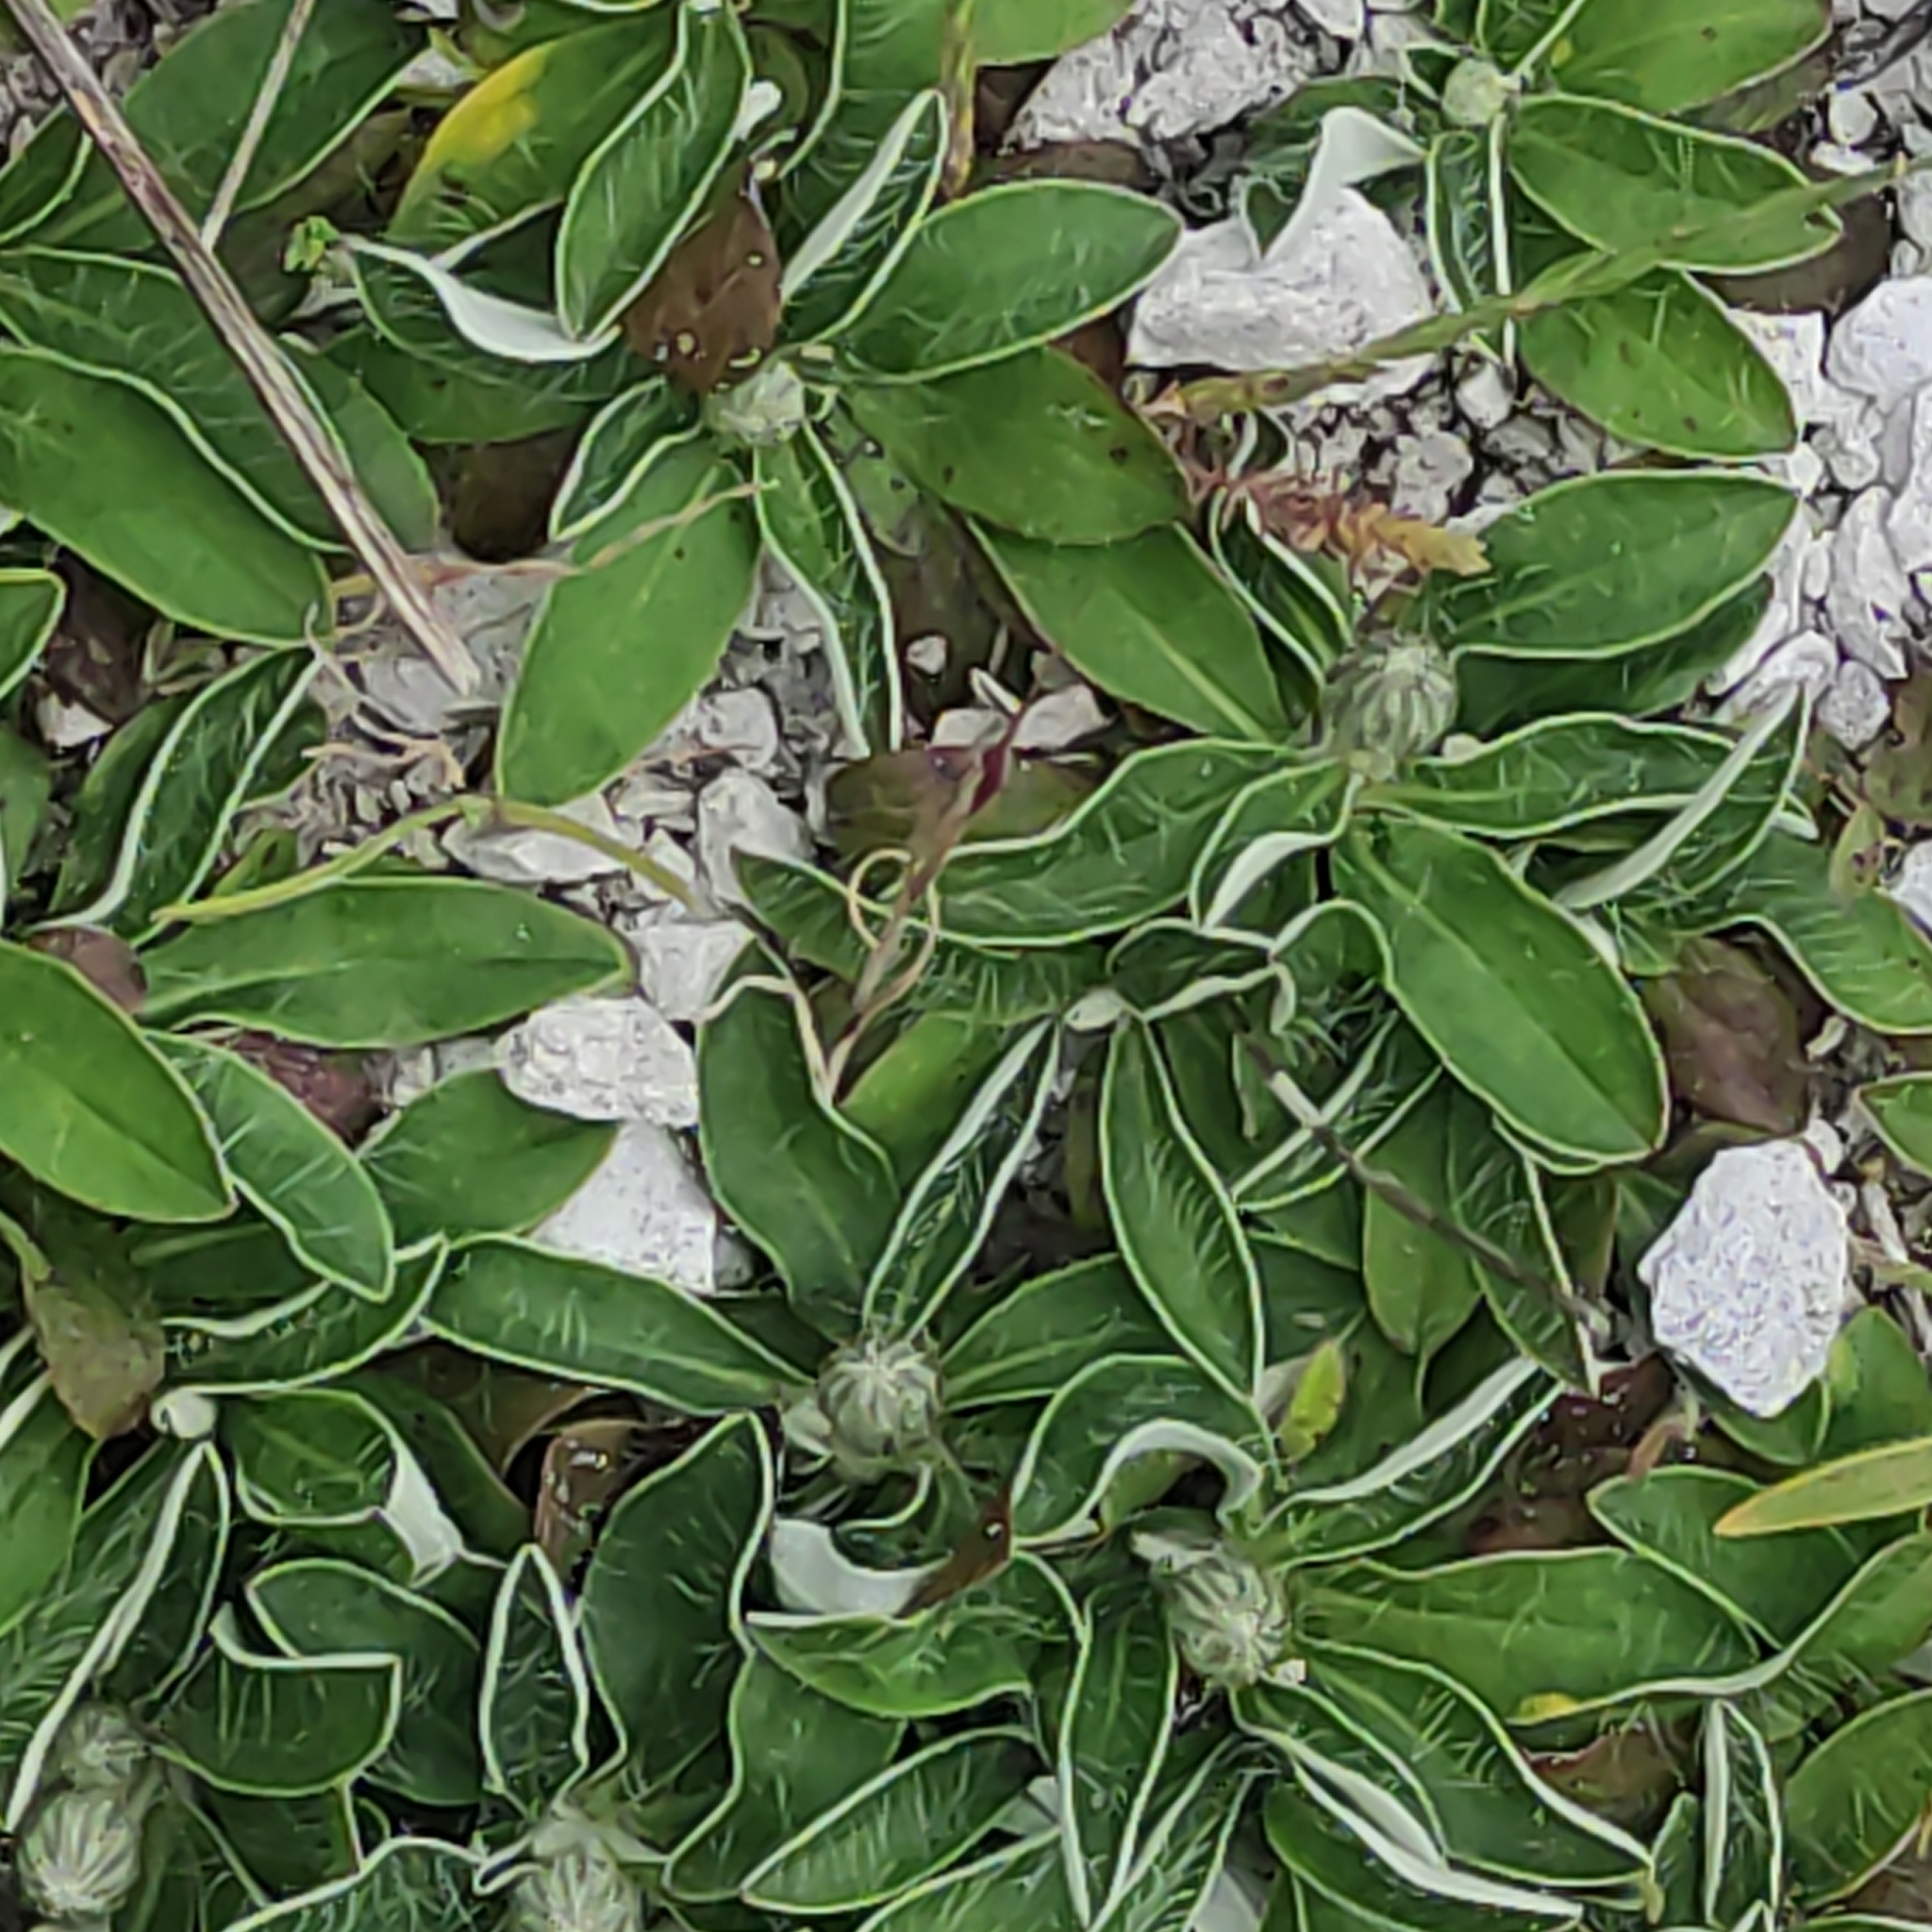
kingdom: Plantae
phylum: Tracheophyta
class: Magnoliopsida
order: Asterales
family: Asteraceae
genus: Pilosella
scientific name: Pilosella officinarum
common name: Mouse-ear hawkweed
